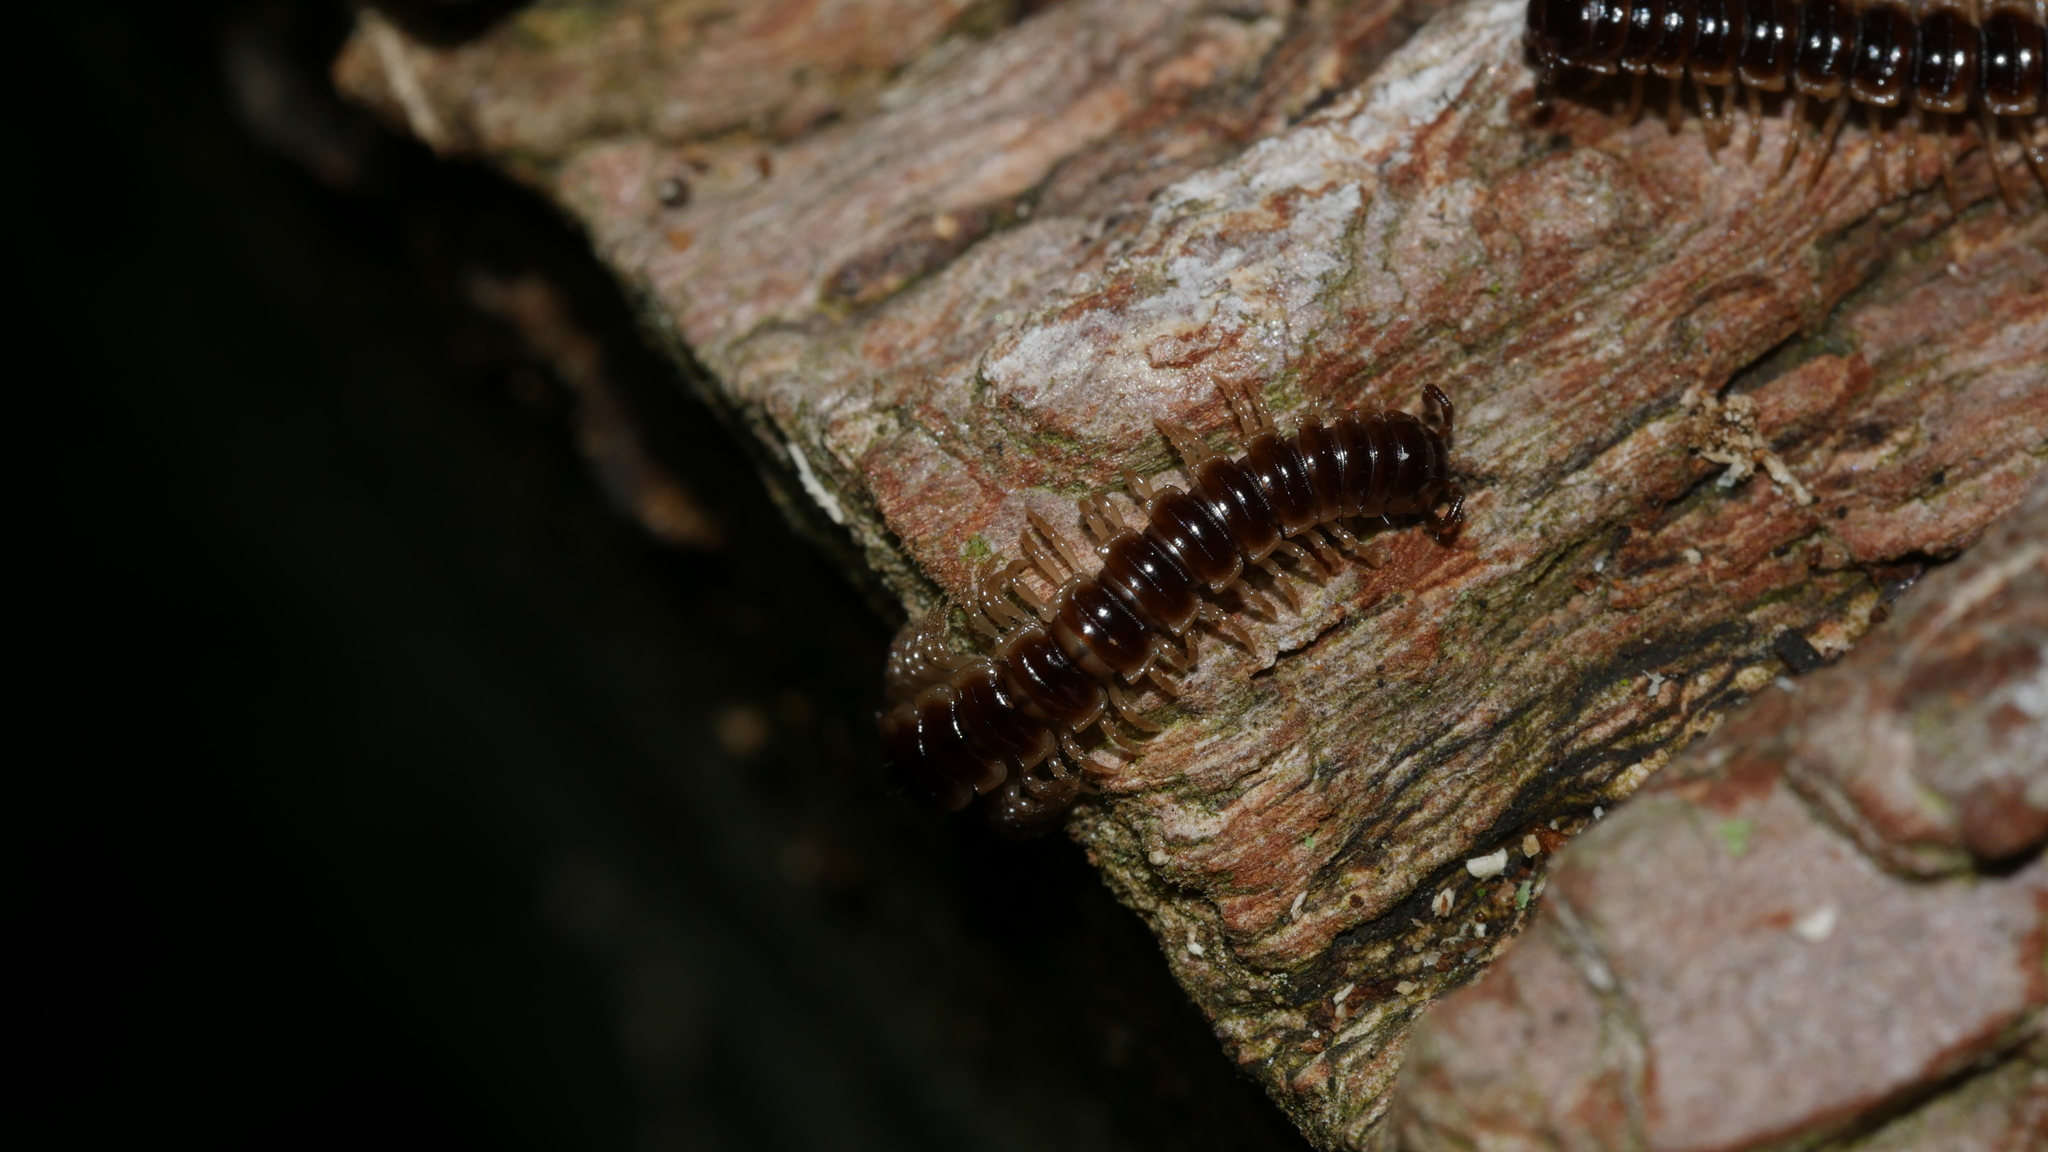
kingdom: Animalia
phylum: Arthropoda
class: Diplopoda
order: Polydesmida
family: Paradoxosomatidae
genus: Oxidus
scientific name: Oxidus gracilis
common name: Greenhouse millipede
